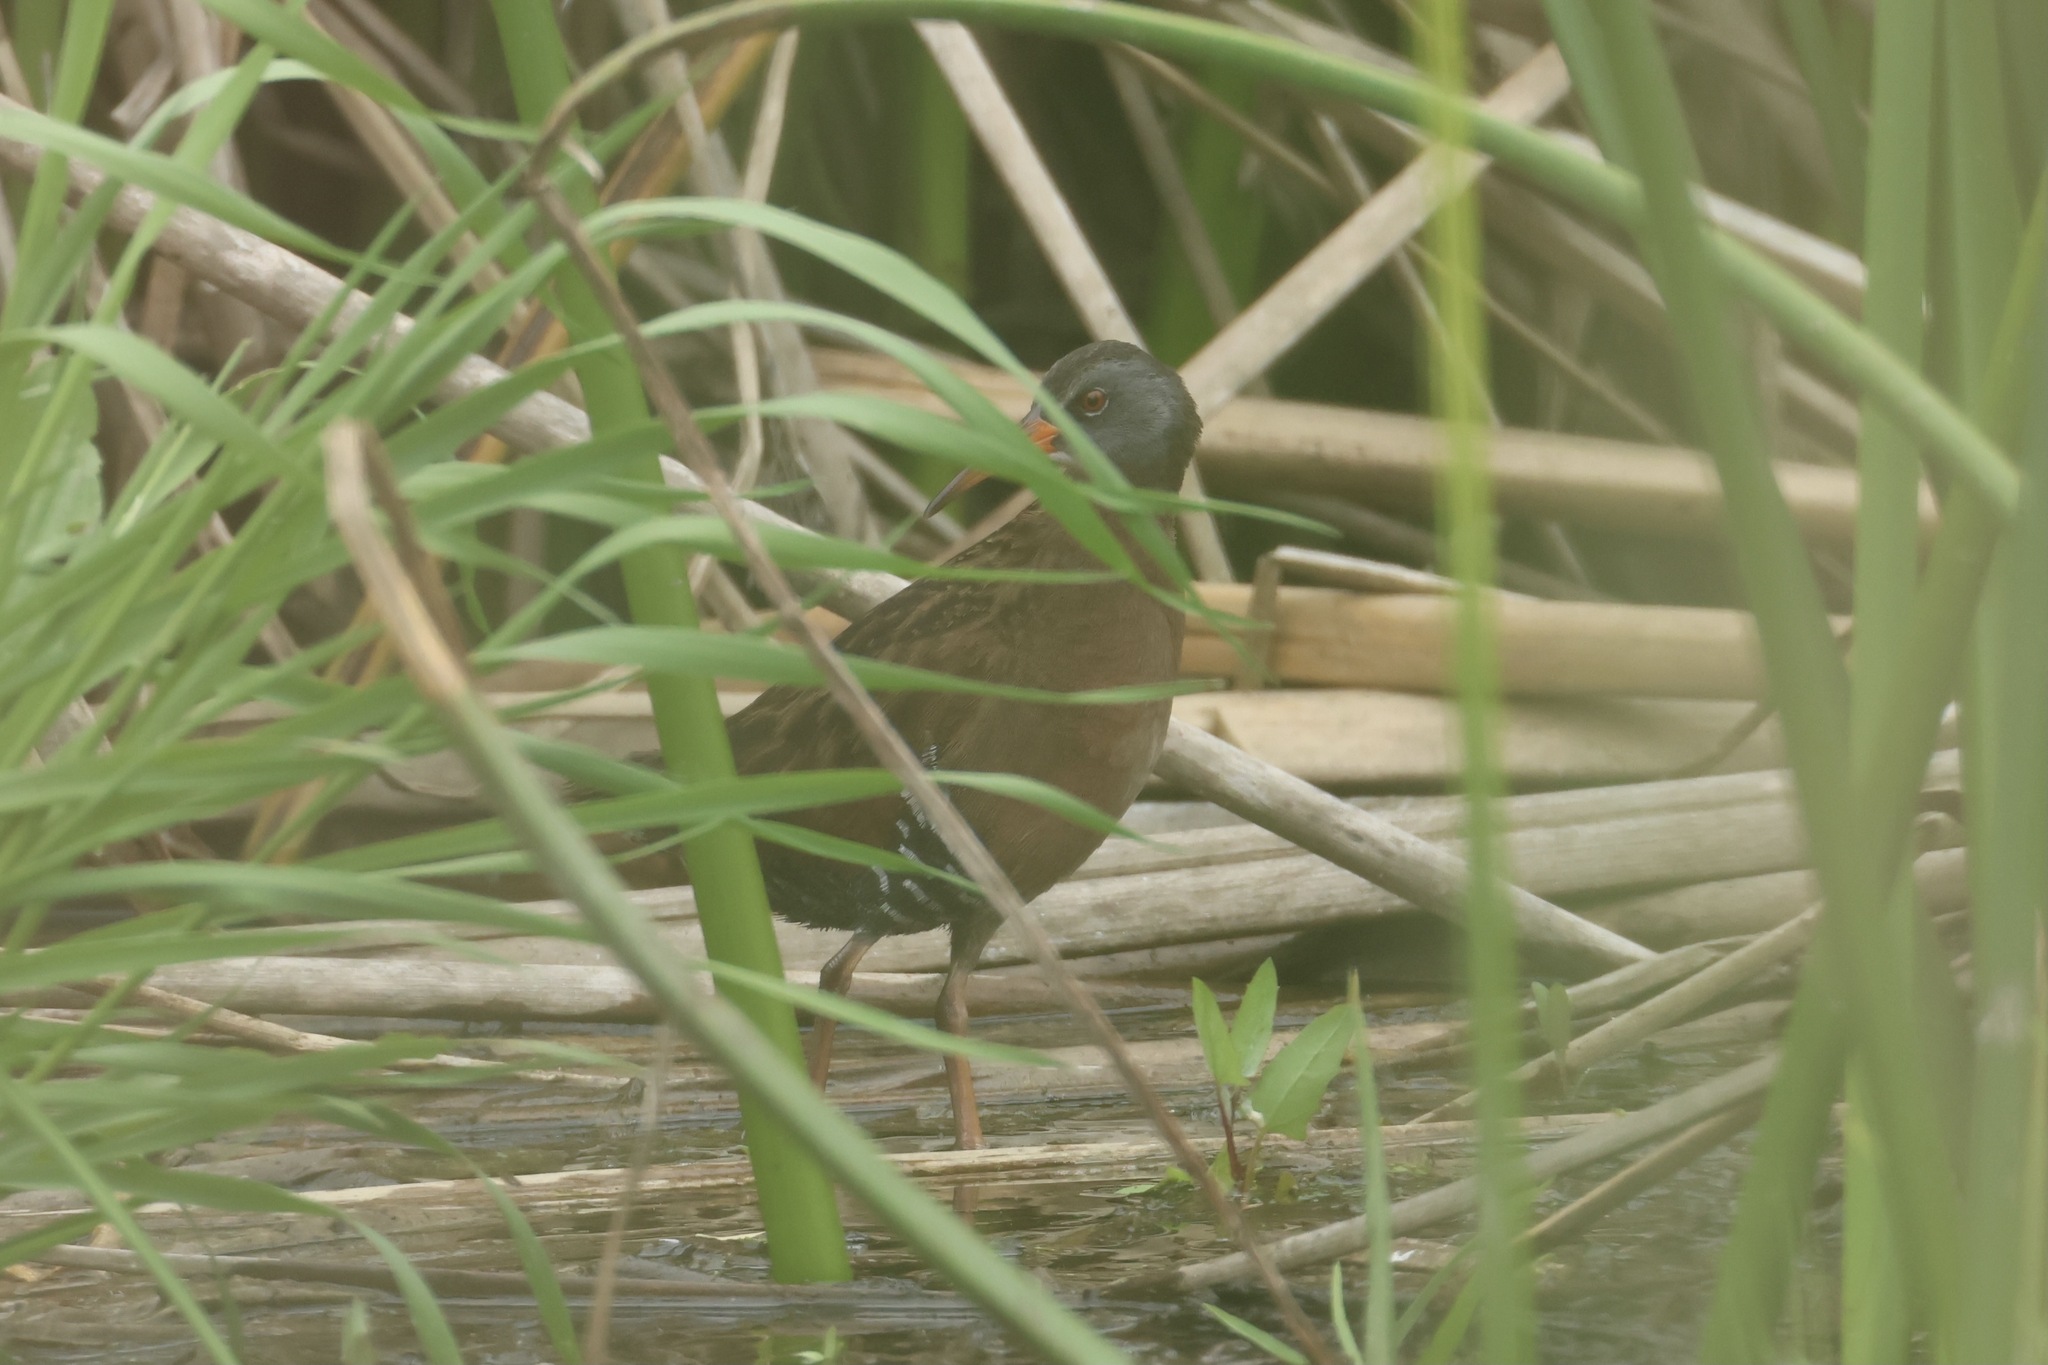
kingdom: Animalia
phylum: Chordata
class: Aves
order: Gruiformes
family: Rallidae
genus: Rallus
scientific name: Rallus limicola
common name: Virginia rail
